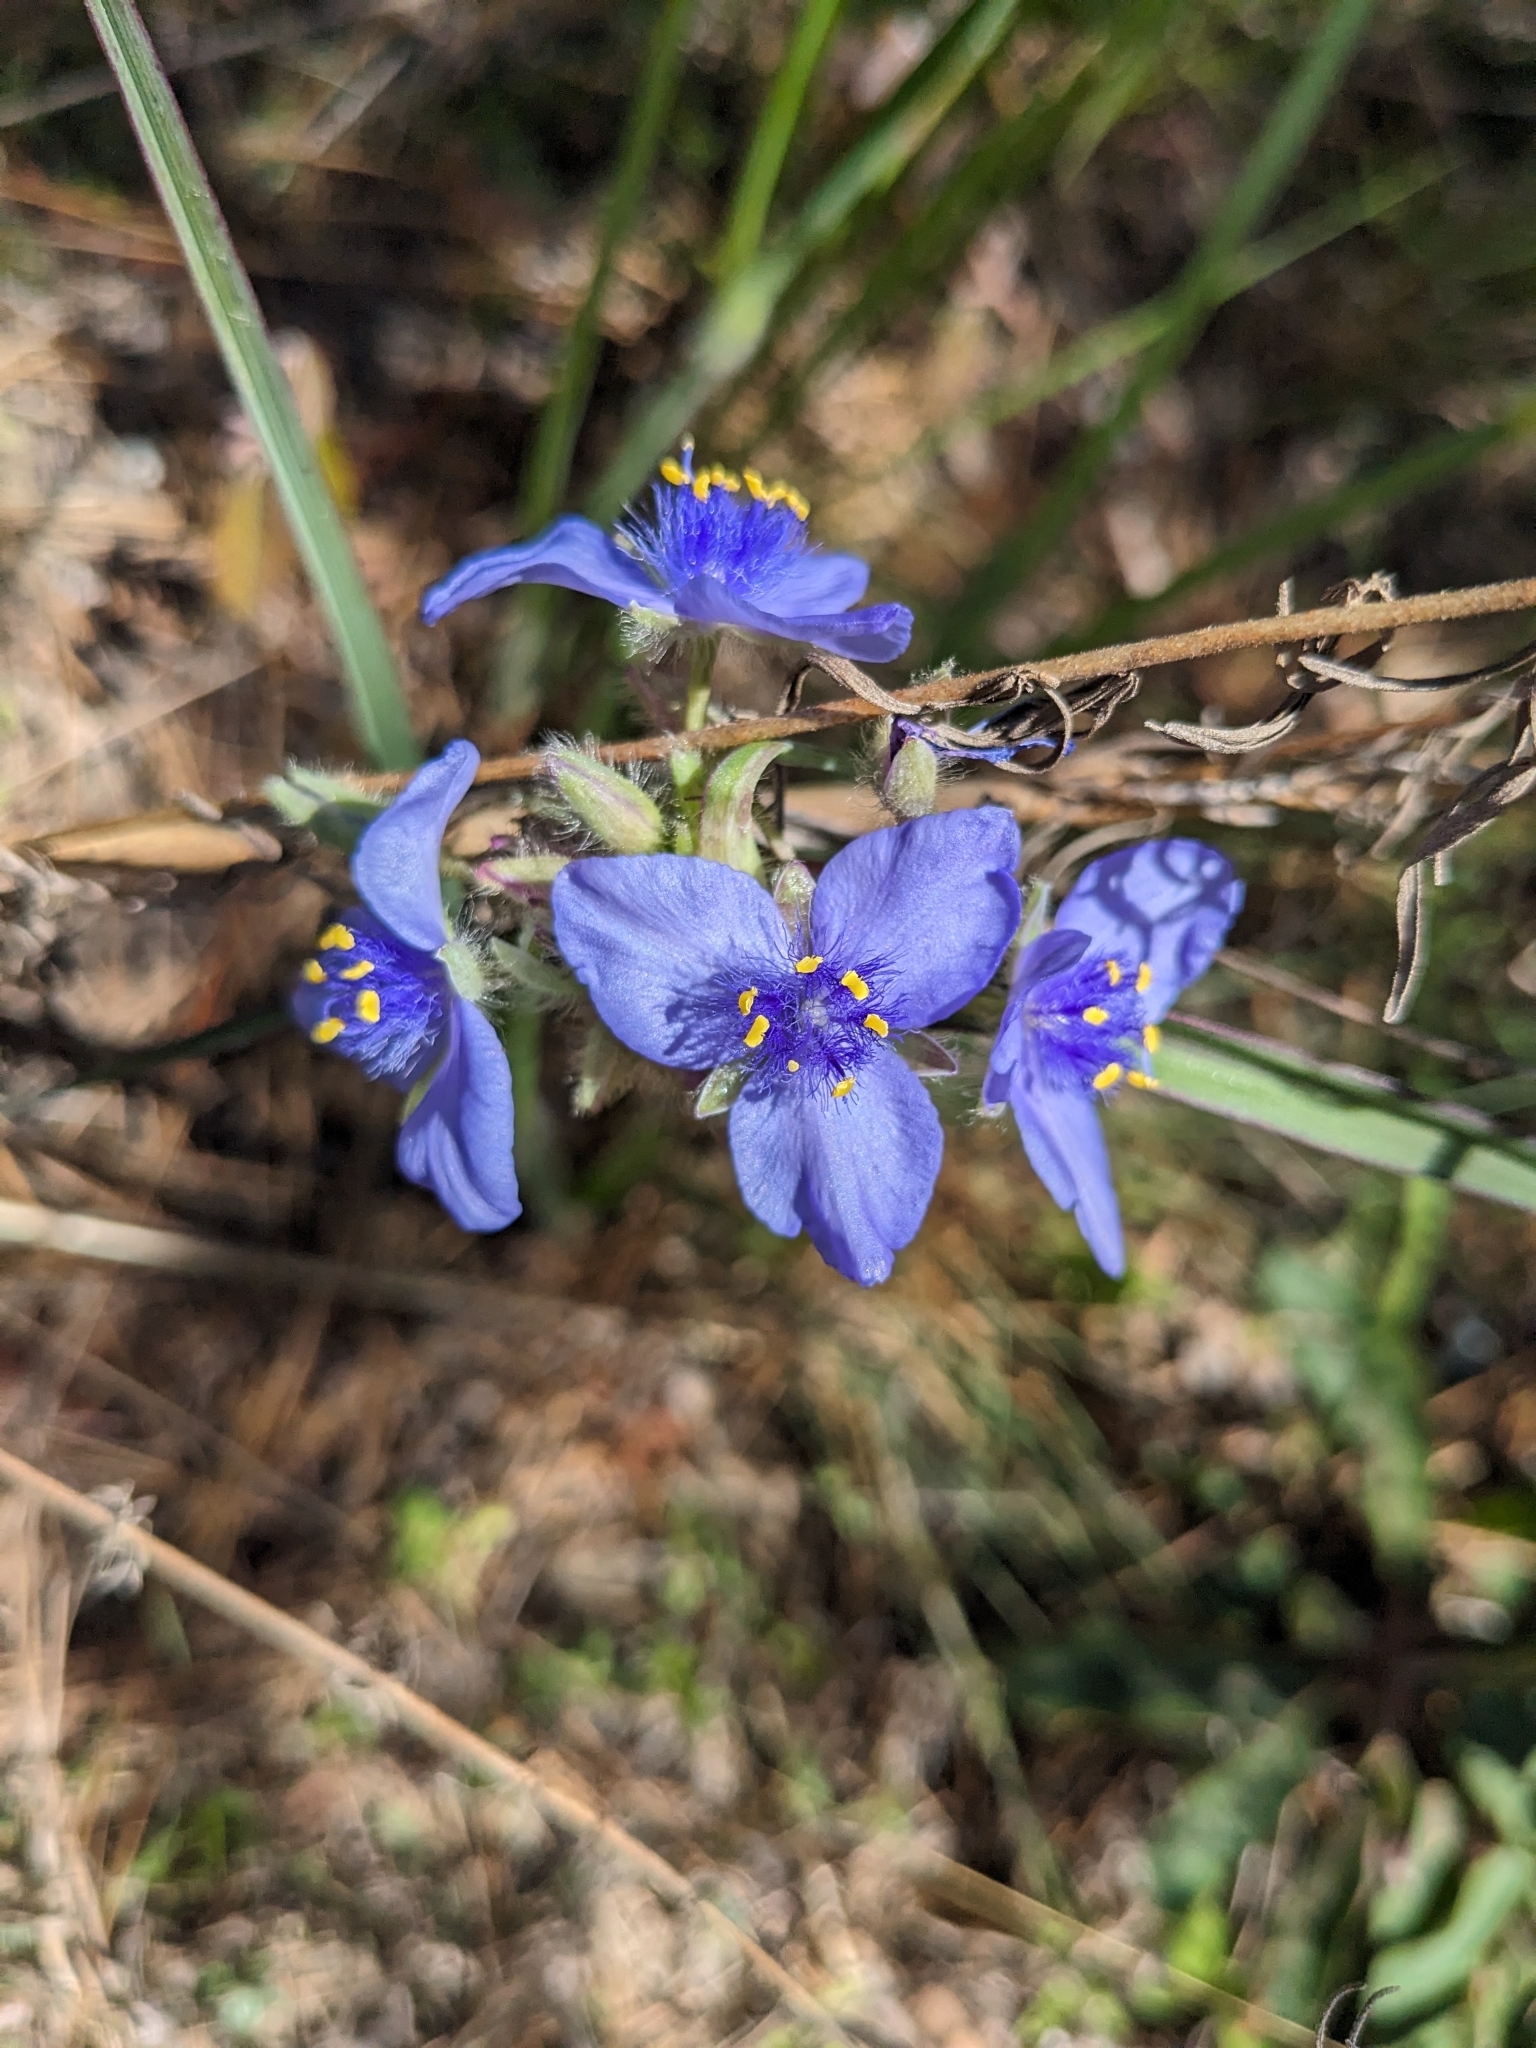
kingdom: Plantae
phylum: Tracheophyta
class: Liliopsida
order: Commelinales
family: Commelinaceae
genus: Tradescantia
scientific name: Tradescantia hirsutiflora
